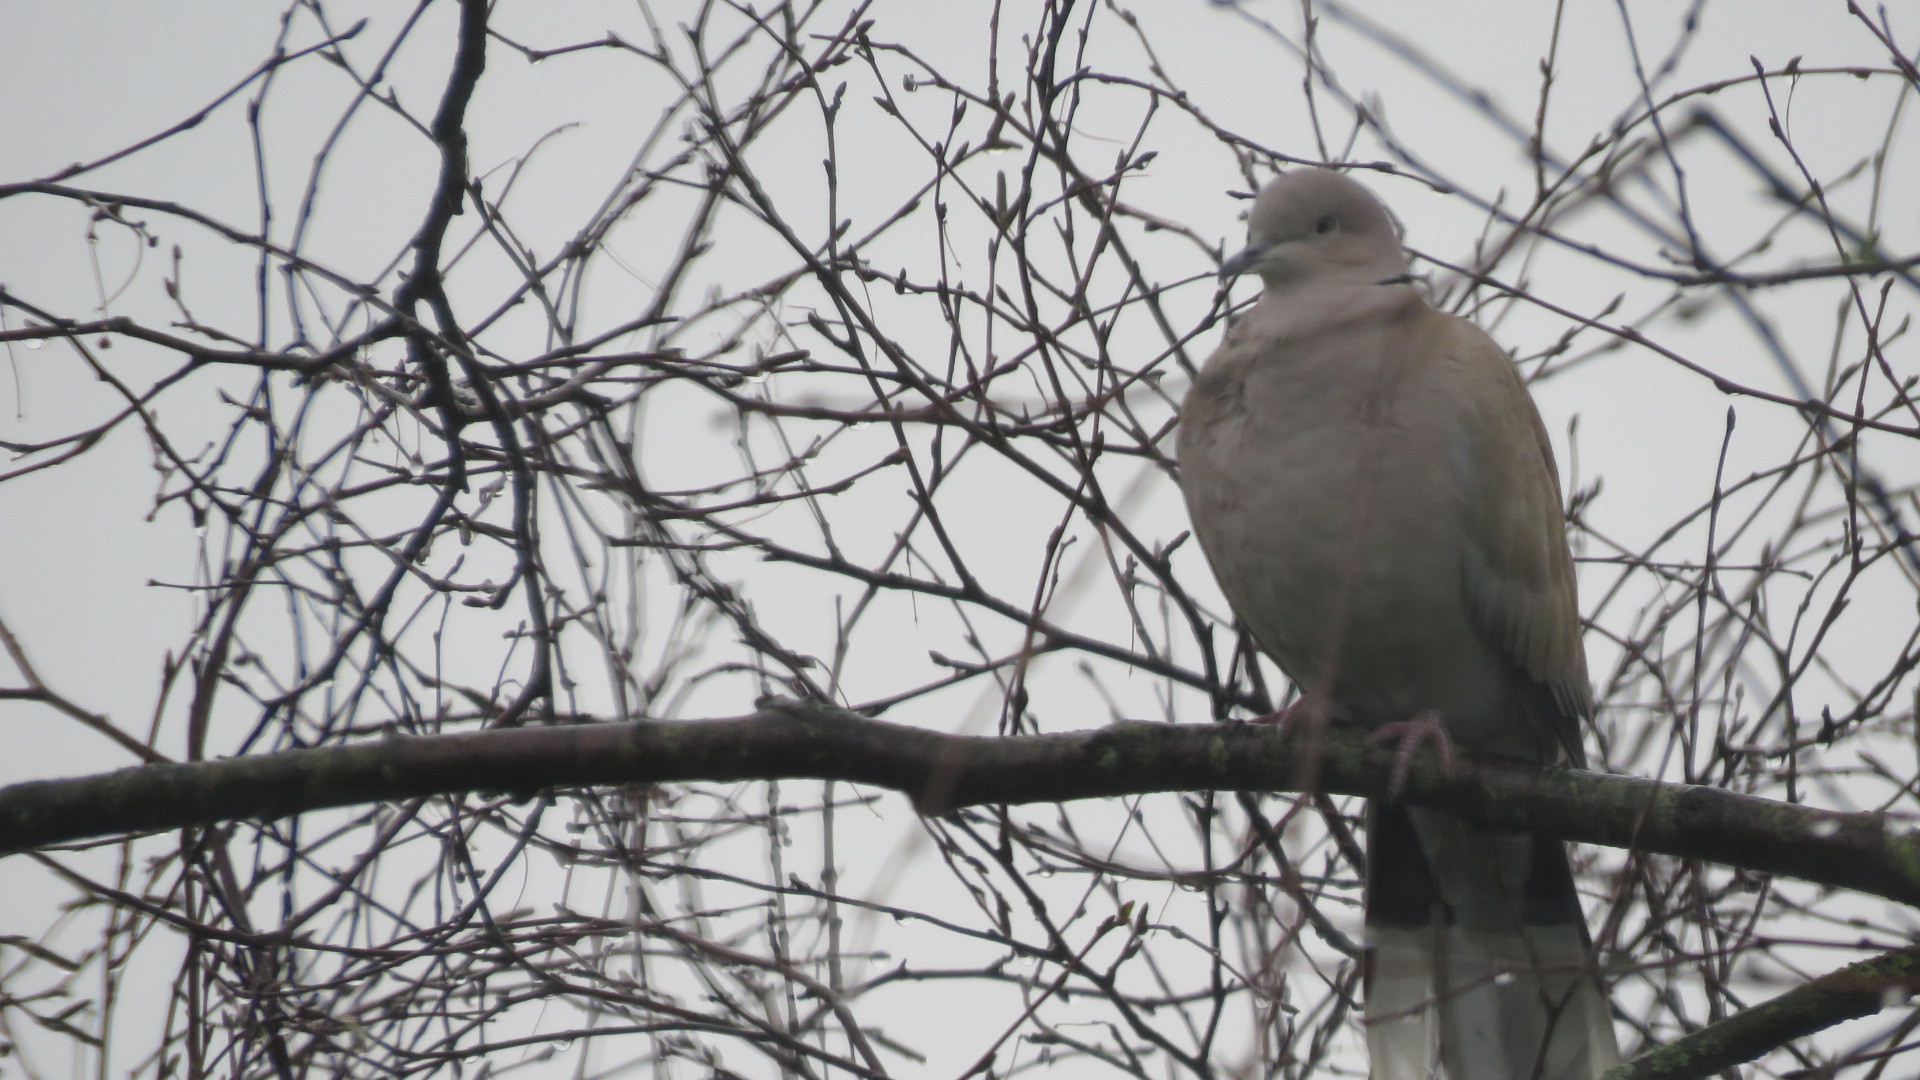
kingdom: Animalia
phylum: Chordata
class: Aves
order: Columbiformes
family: Columbidae
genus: Streptopelia
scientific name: Streptopelia decaocto
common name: Eurasian collared dove
